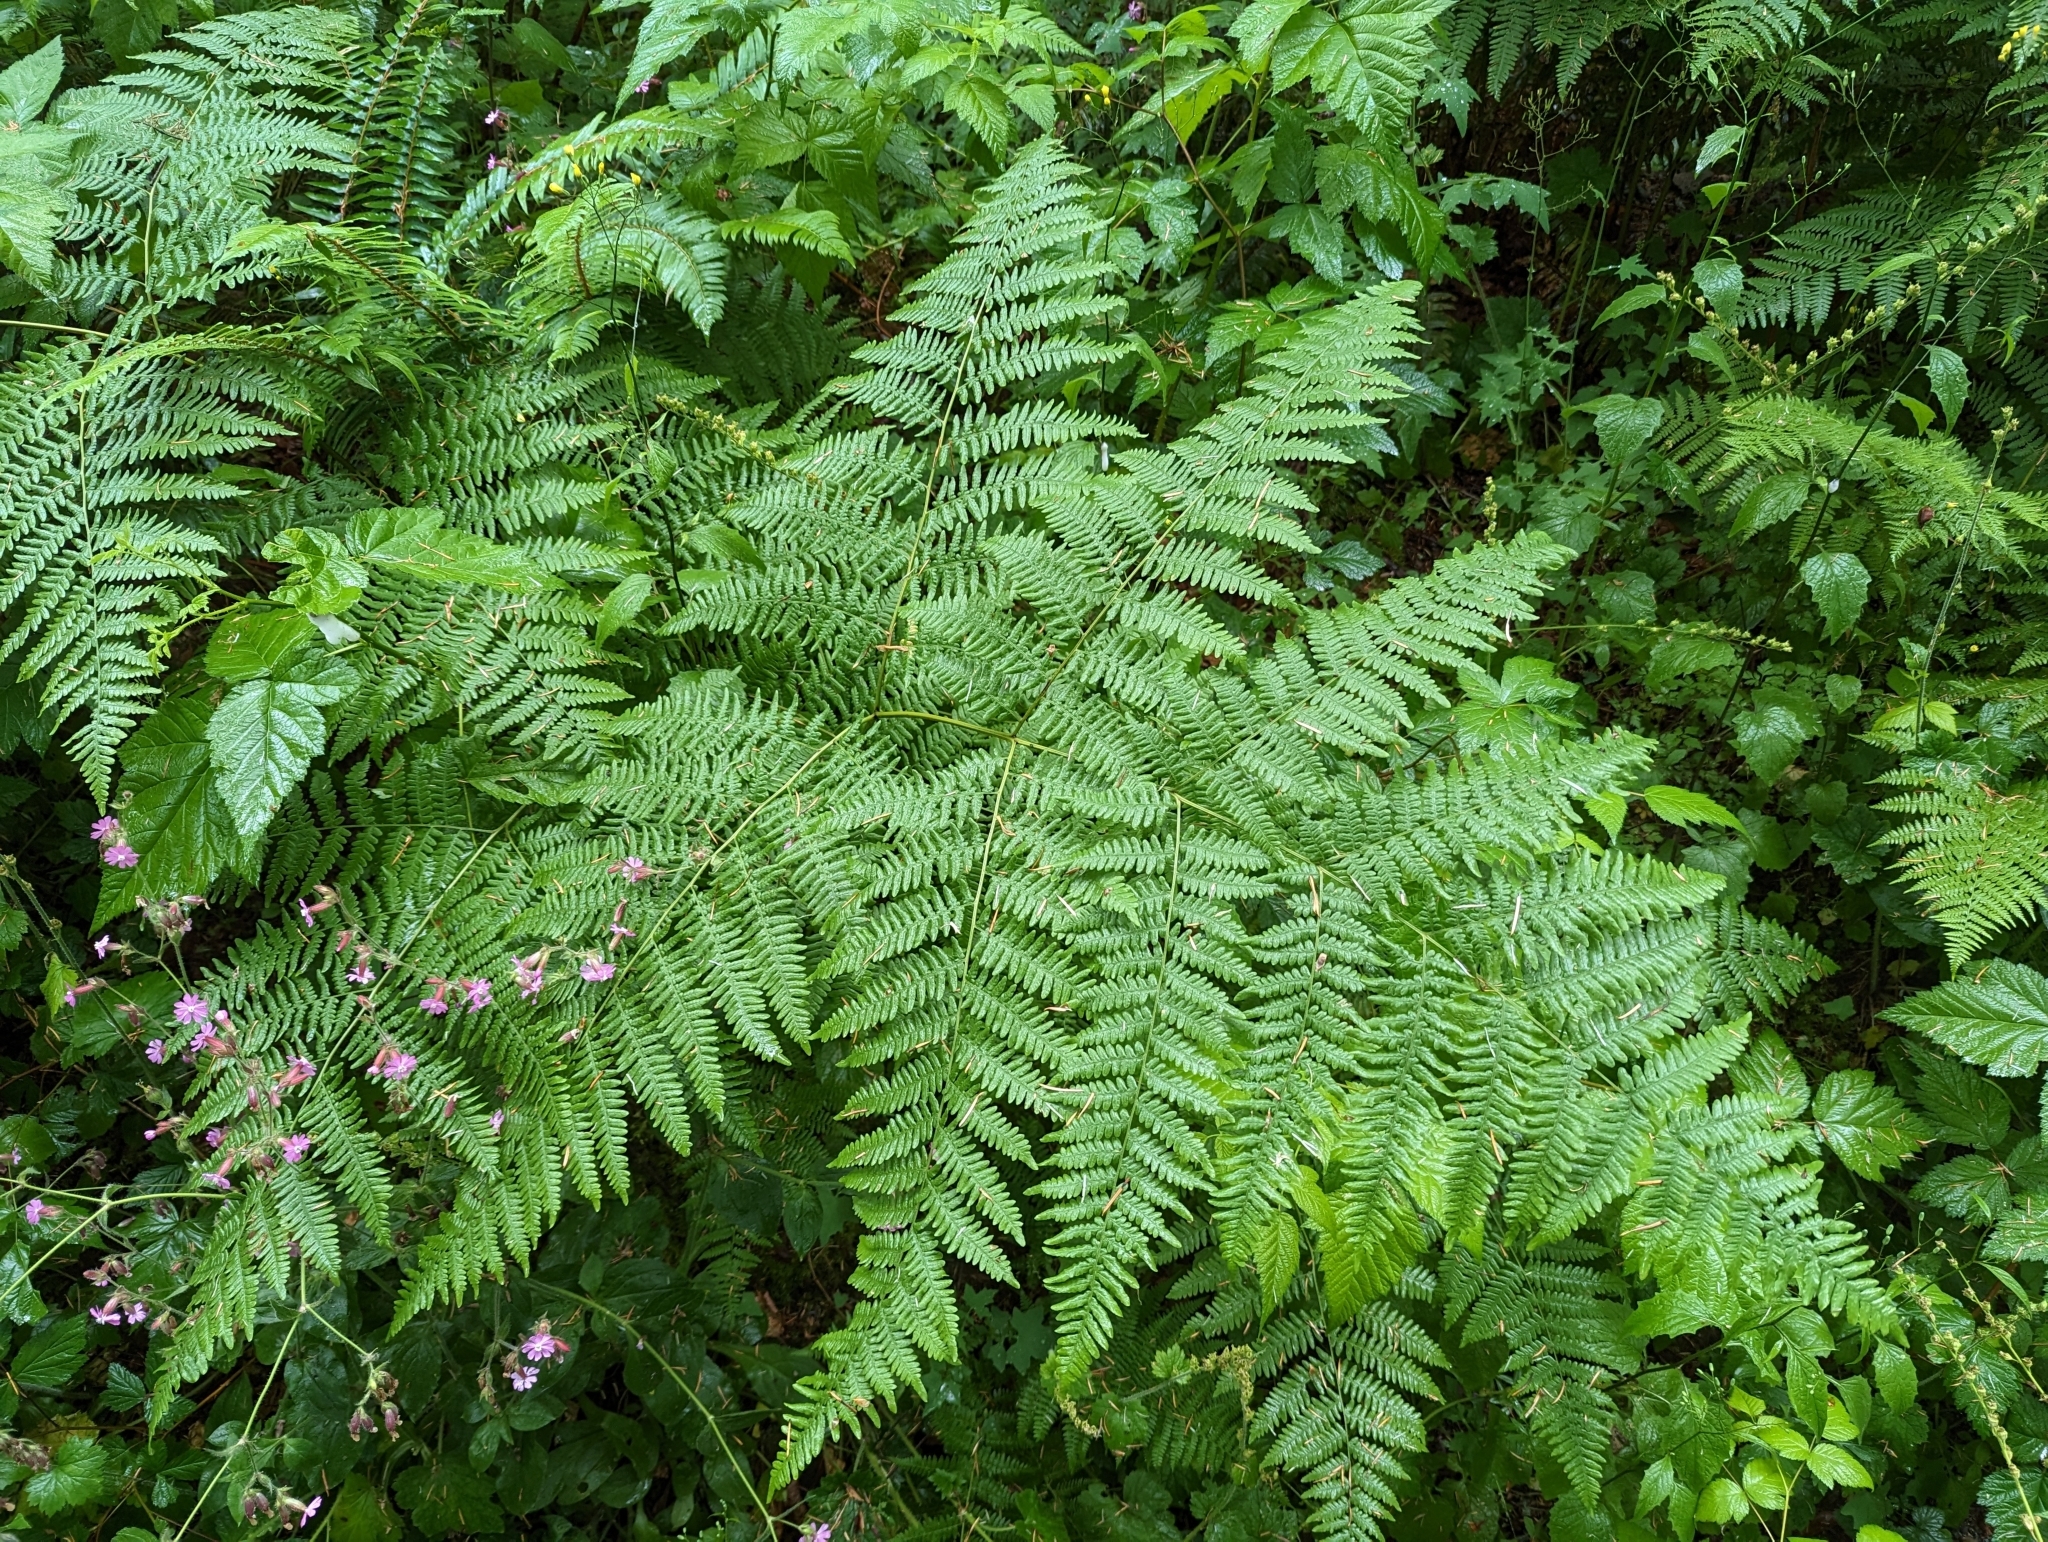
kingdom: Plantae
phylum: Tracheophyta
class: Polypodiopsida
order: Polypodiales
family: Dennstaedtiaceae
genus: Pteridium
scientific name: Pteridium aquilinum
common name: Bracken
